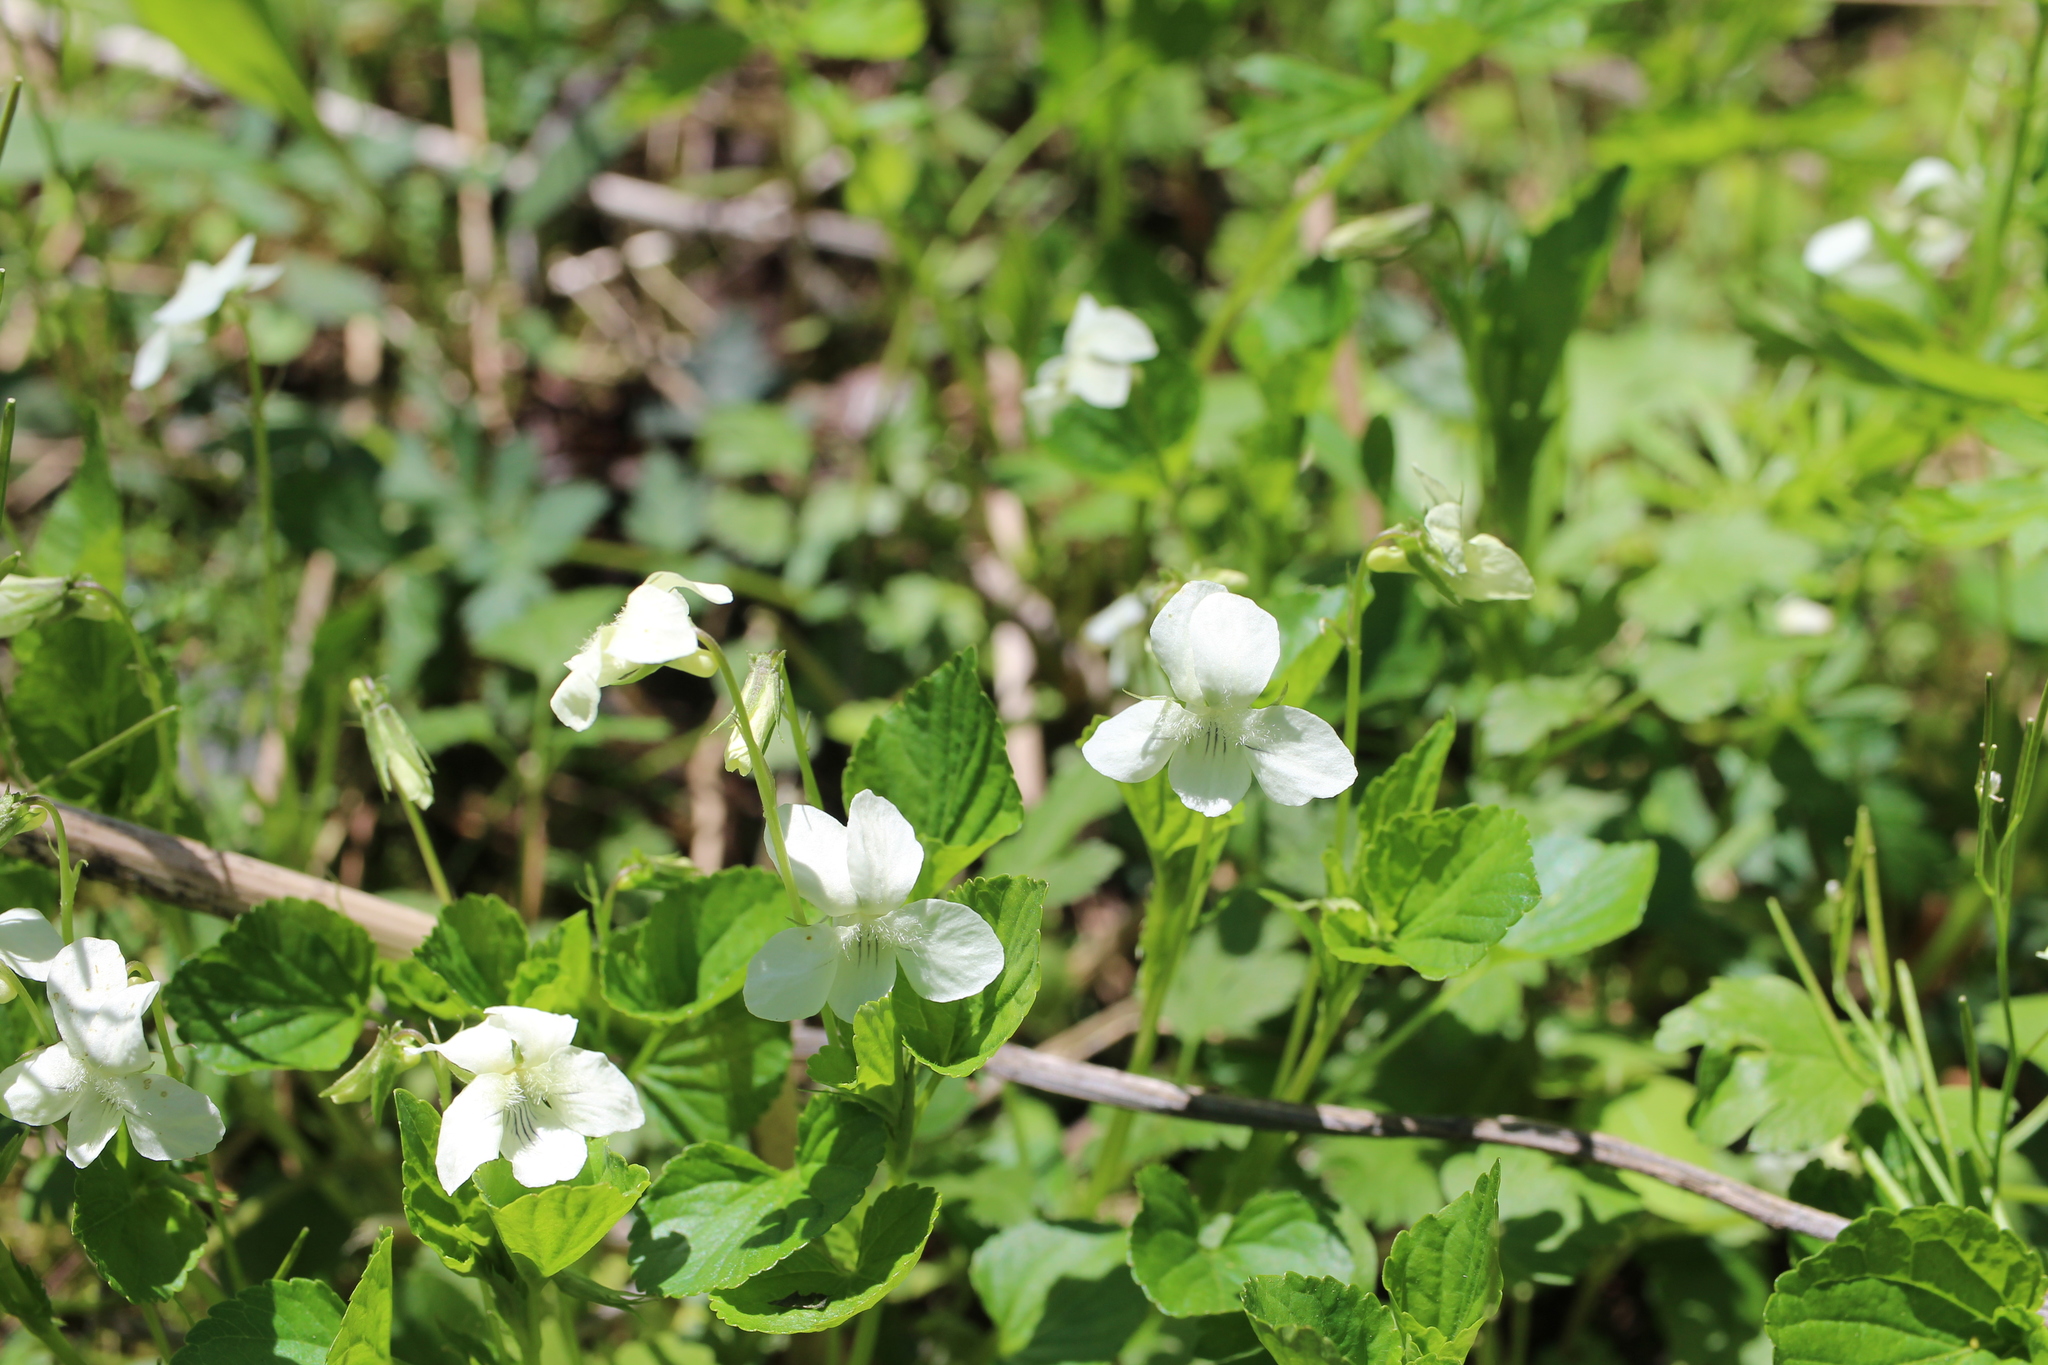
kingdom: Plantae
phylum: Tracheophyta
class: Magnoliopsida
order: Malpighiales
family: Violaceae
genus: Viola
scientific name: Viola striata
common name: Cream violet
